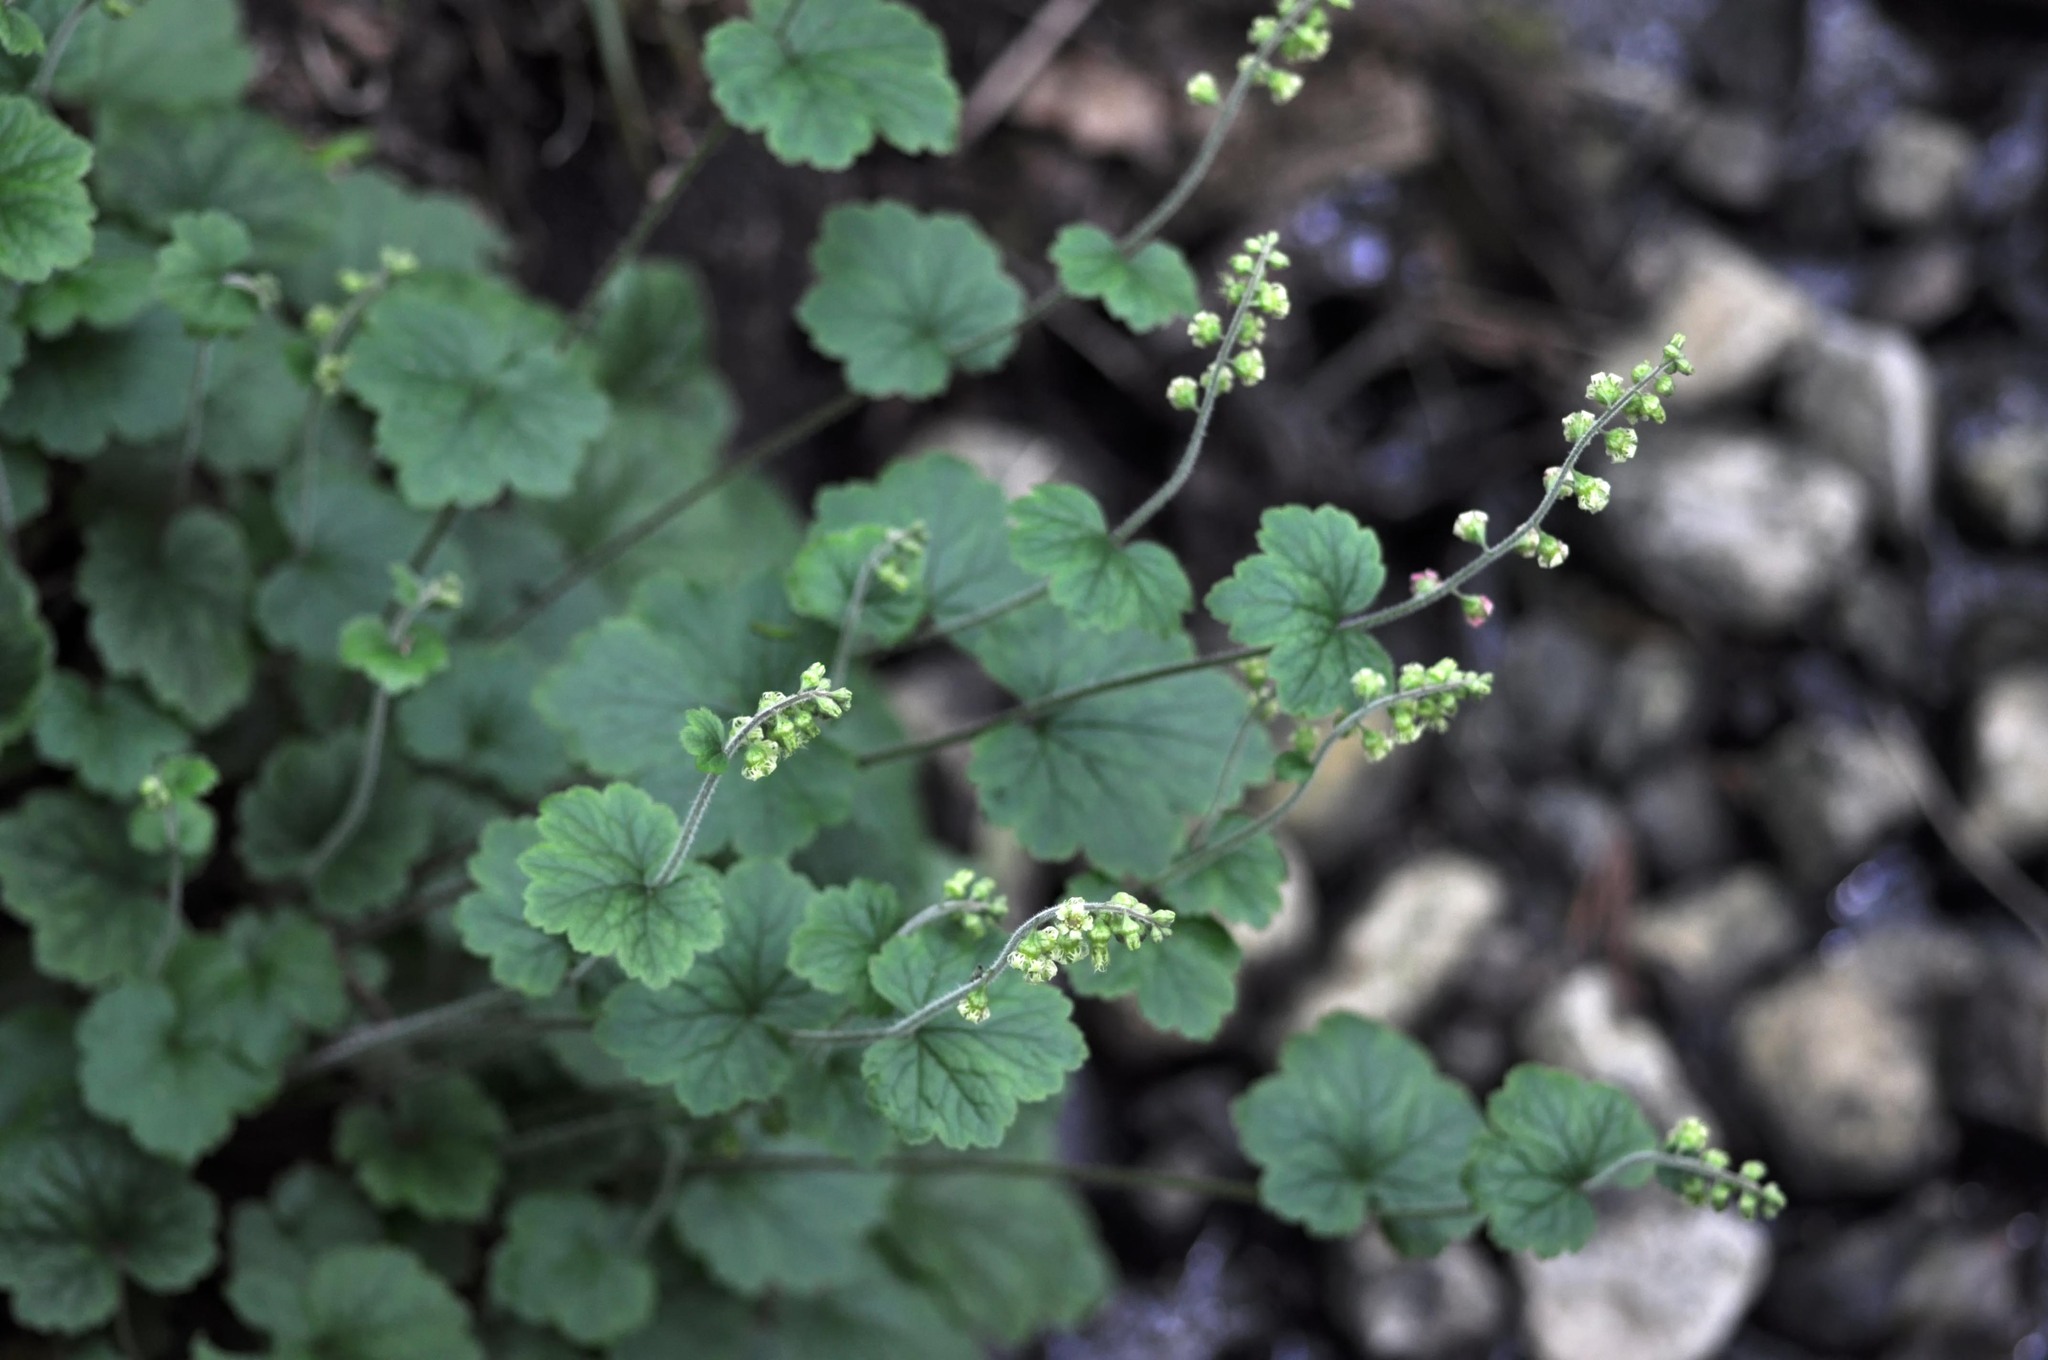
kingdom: Plantae
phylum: Tracheophyta
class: Magnoliopsida
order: Saxifragales
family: Saxifragaceae
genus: Tellima
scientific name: Tellima grandiflora
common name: Fringecups
